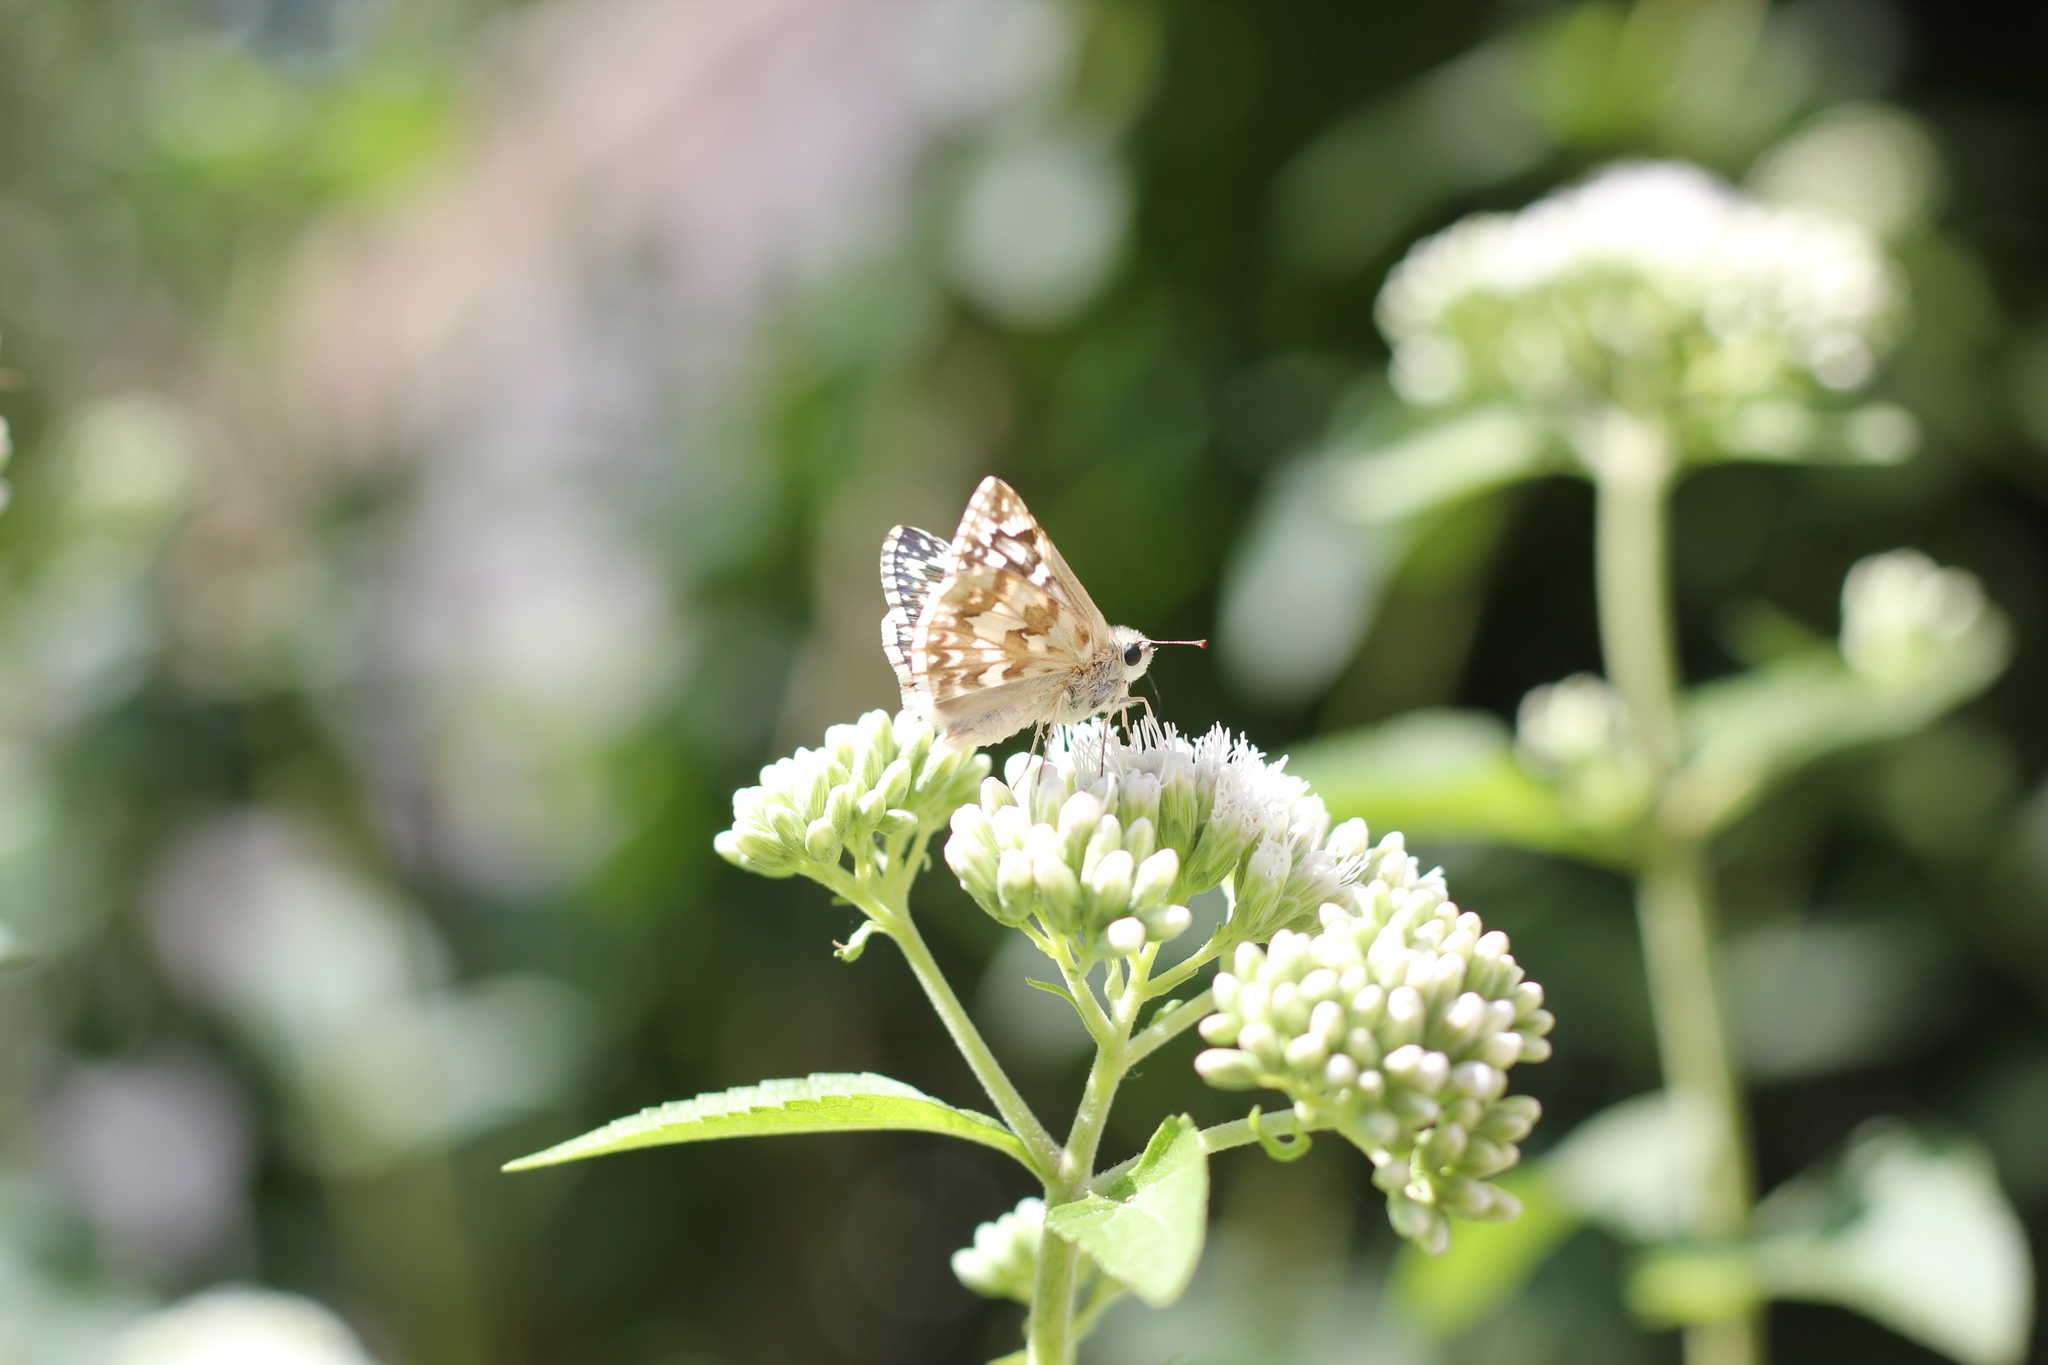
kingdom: Animalia
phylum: Arthropoda
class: Insecta
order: Lepidoptera
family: Hesperiidae
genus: Heliopetes
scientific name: Heliopetes americanus
